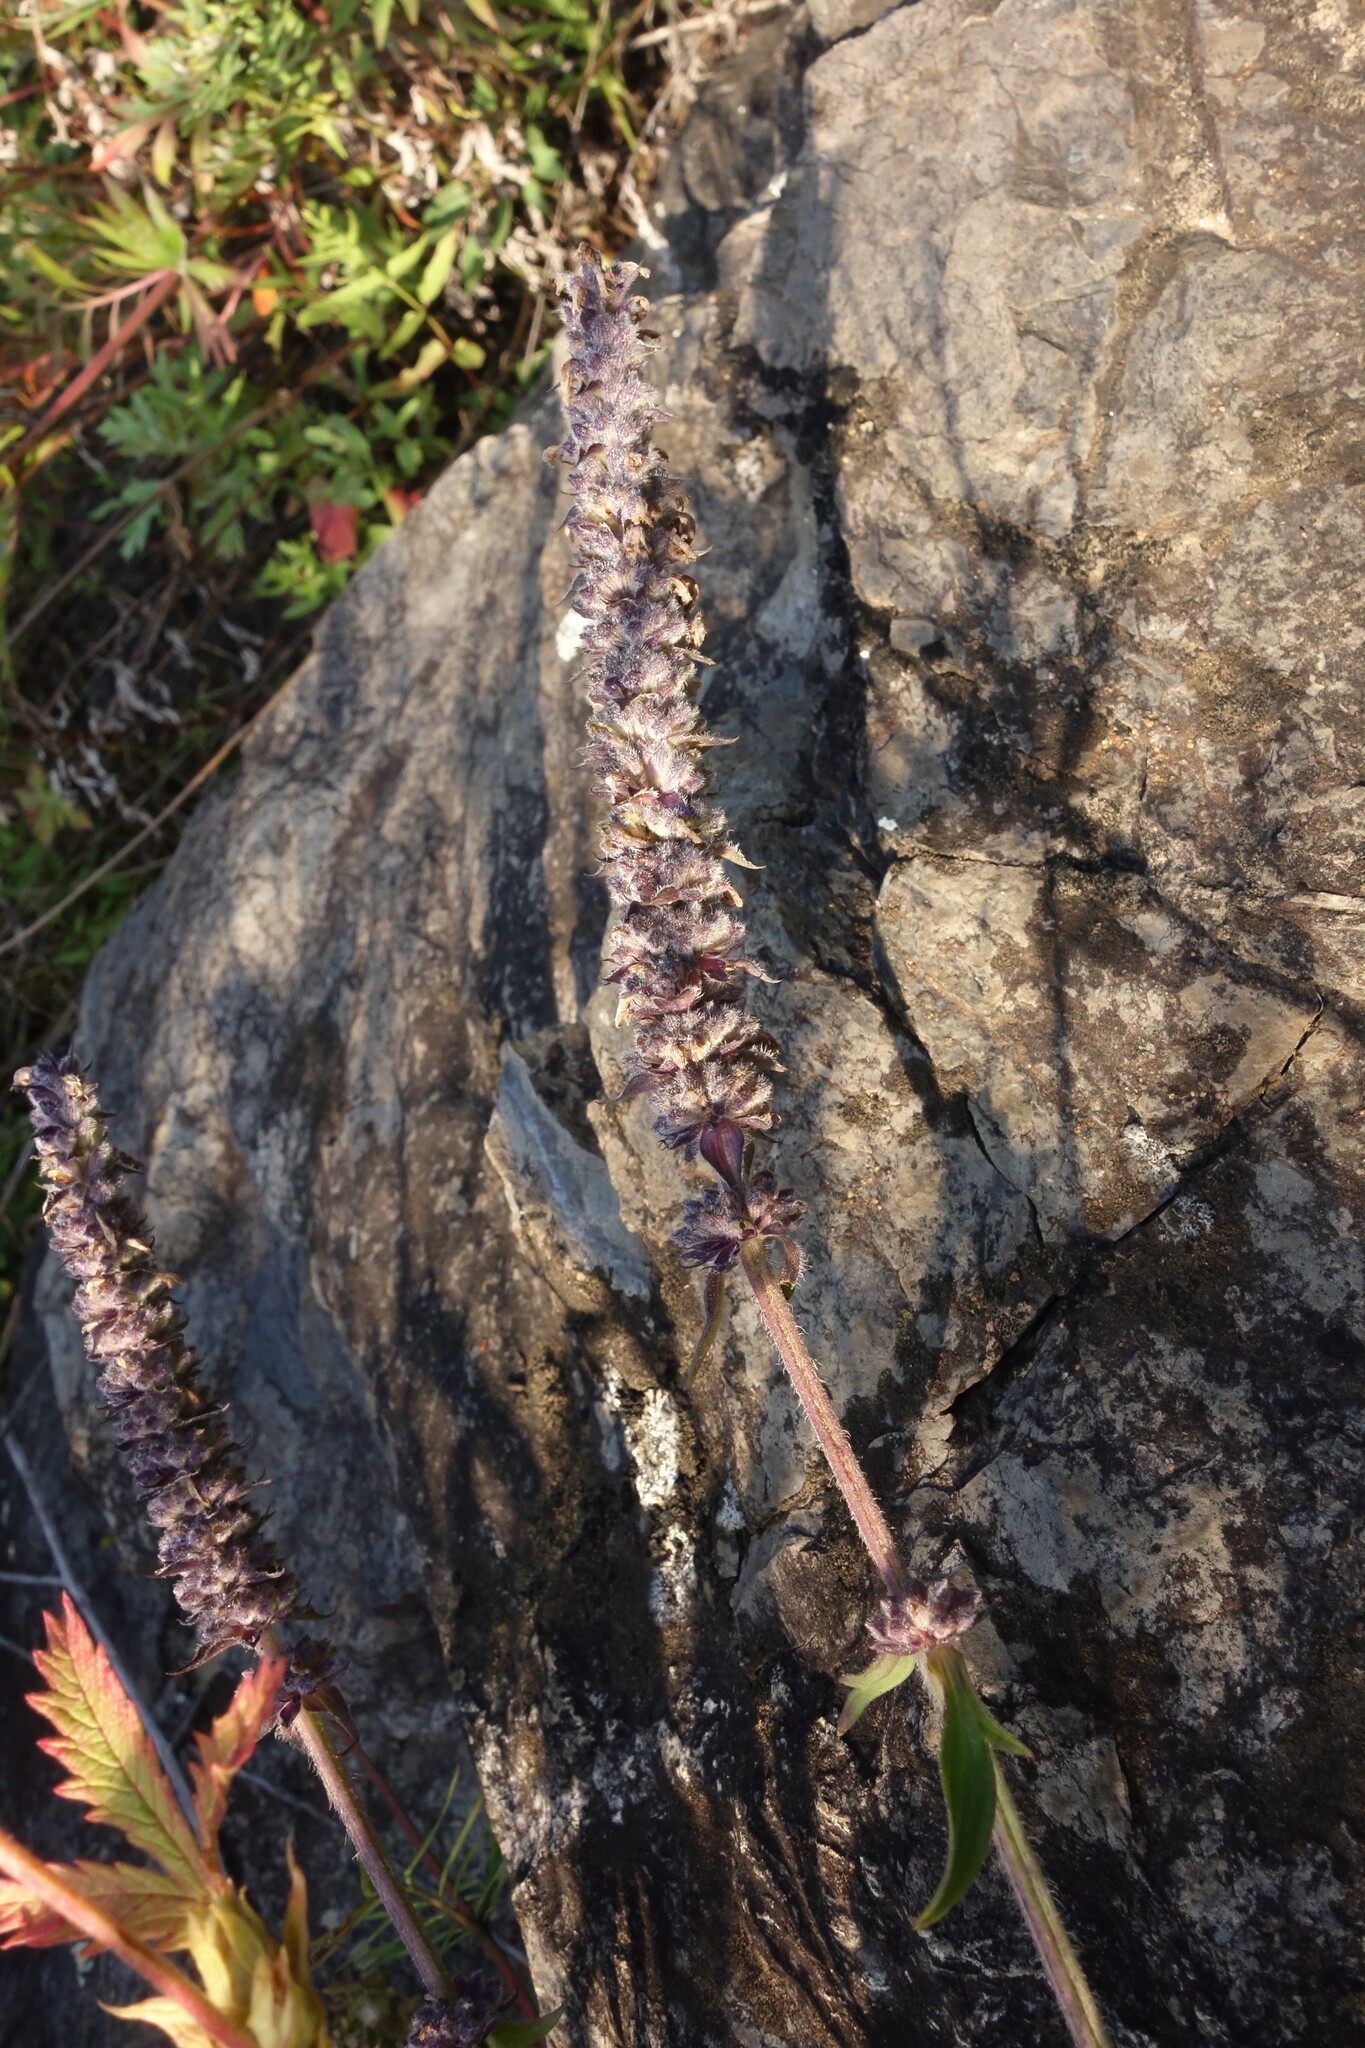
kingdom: Plantae
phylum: Tracheophyta
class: Magnoliopsida
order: Lamiales
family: Lamiaceae
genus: Nepeta
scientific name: Nepeta multifida
